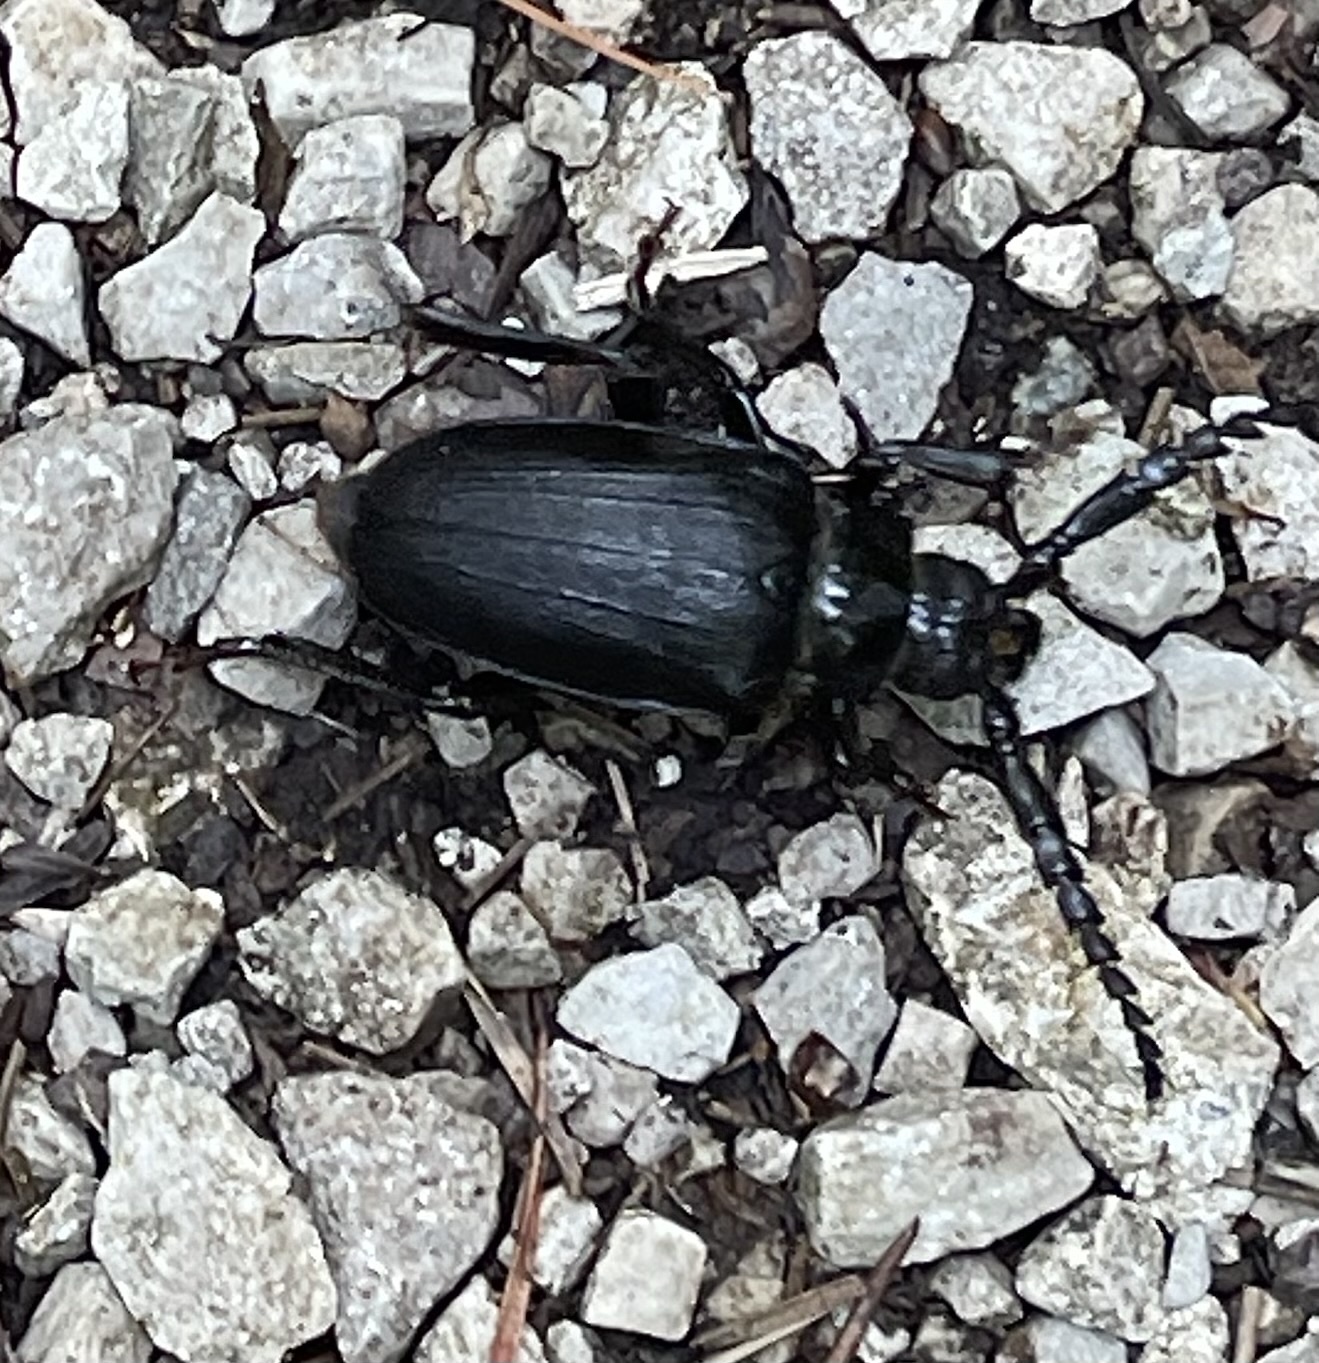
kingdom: Animalia
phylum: Arthropoda
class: Insecta
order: Coleoptera
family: Cerambycidae
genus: Prionus
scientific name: Prionus laticollis
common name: Broad necked prionus
